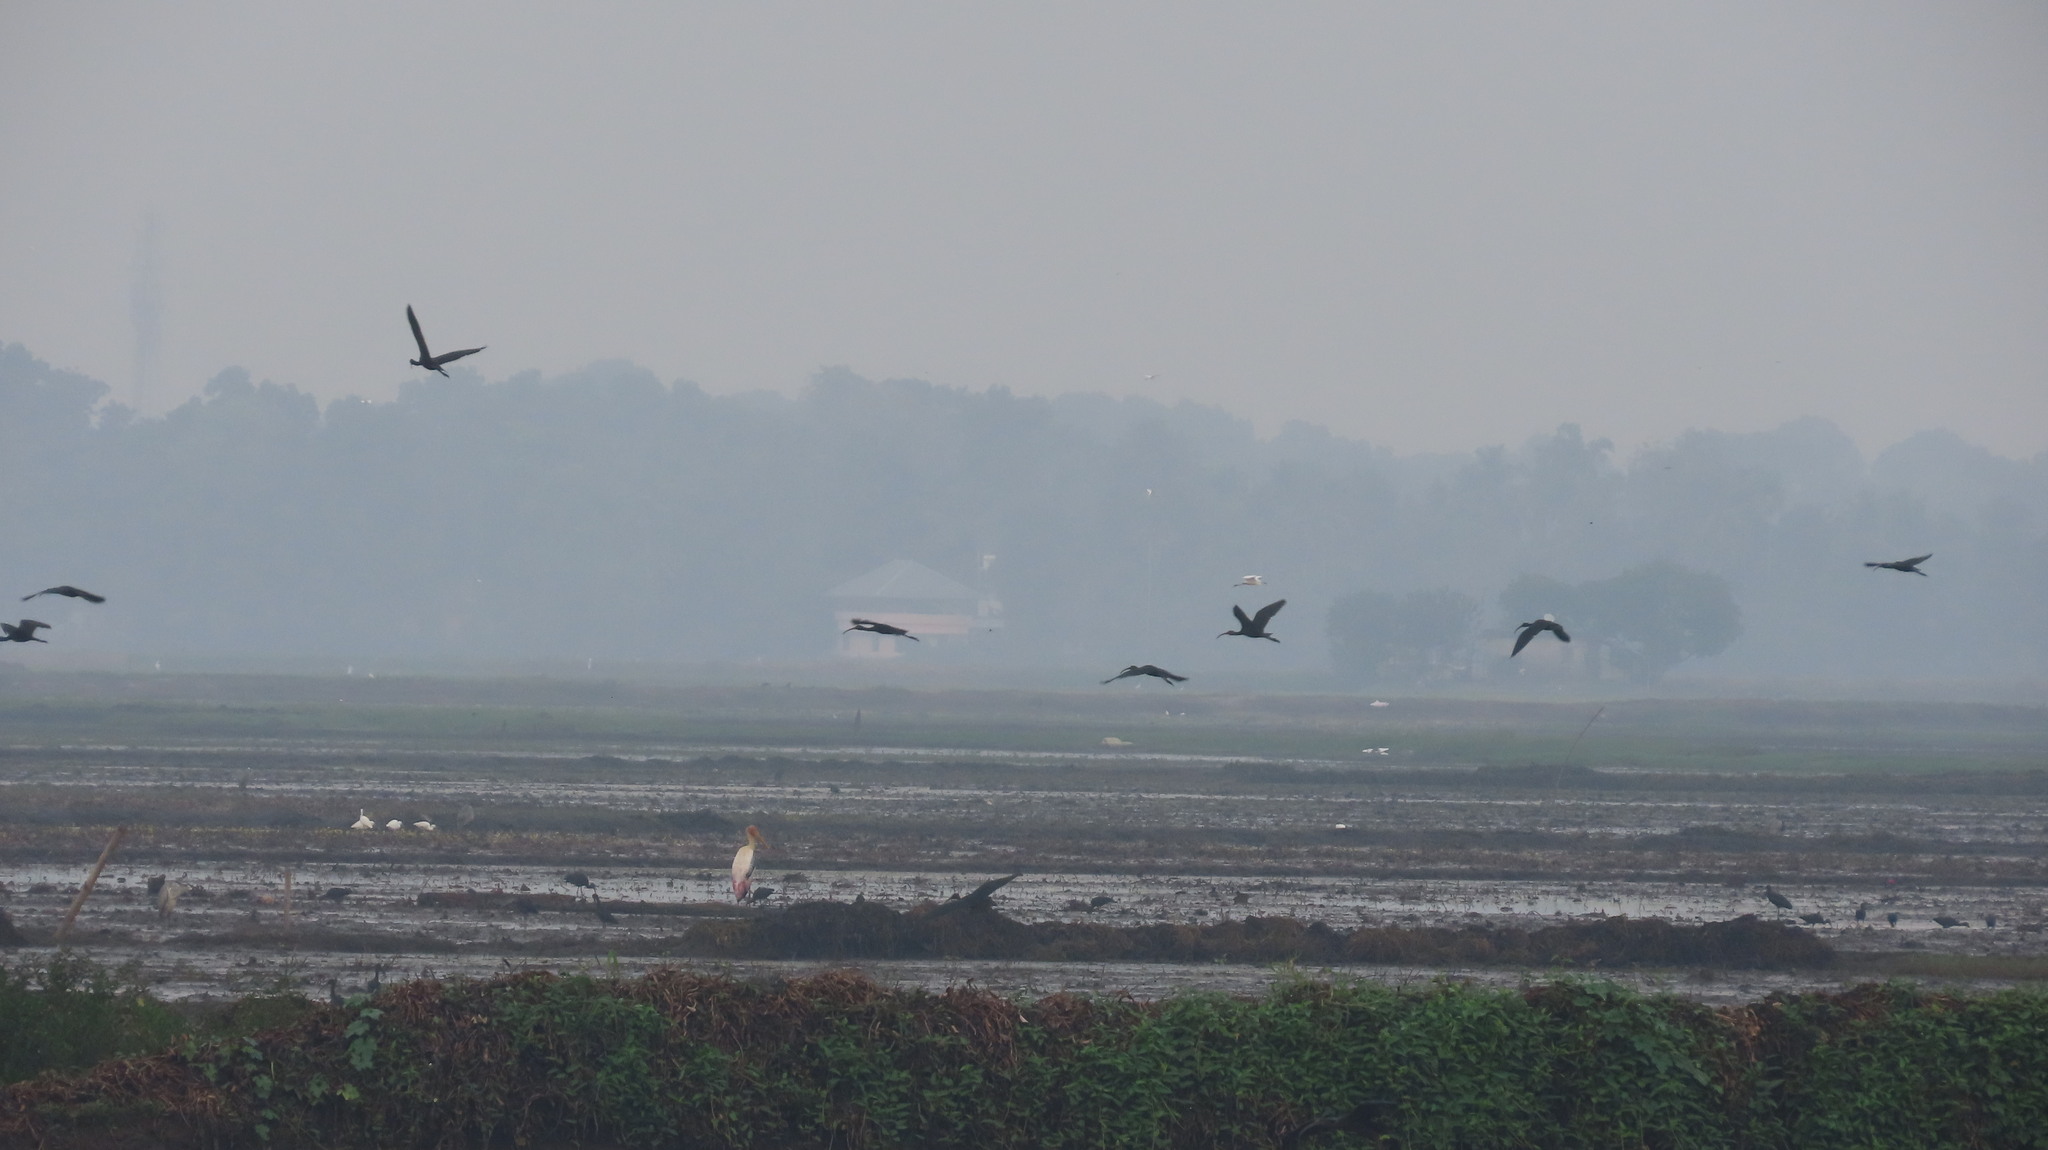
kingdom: Animalia
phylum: Chordata
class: Aves
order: Ciconiiformes
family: Ciconiidae
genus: Mycteria
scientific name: Mycteria leucocephala
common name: Painted stork
